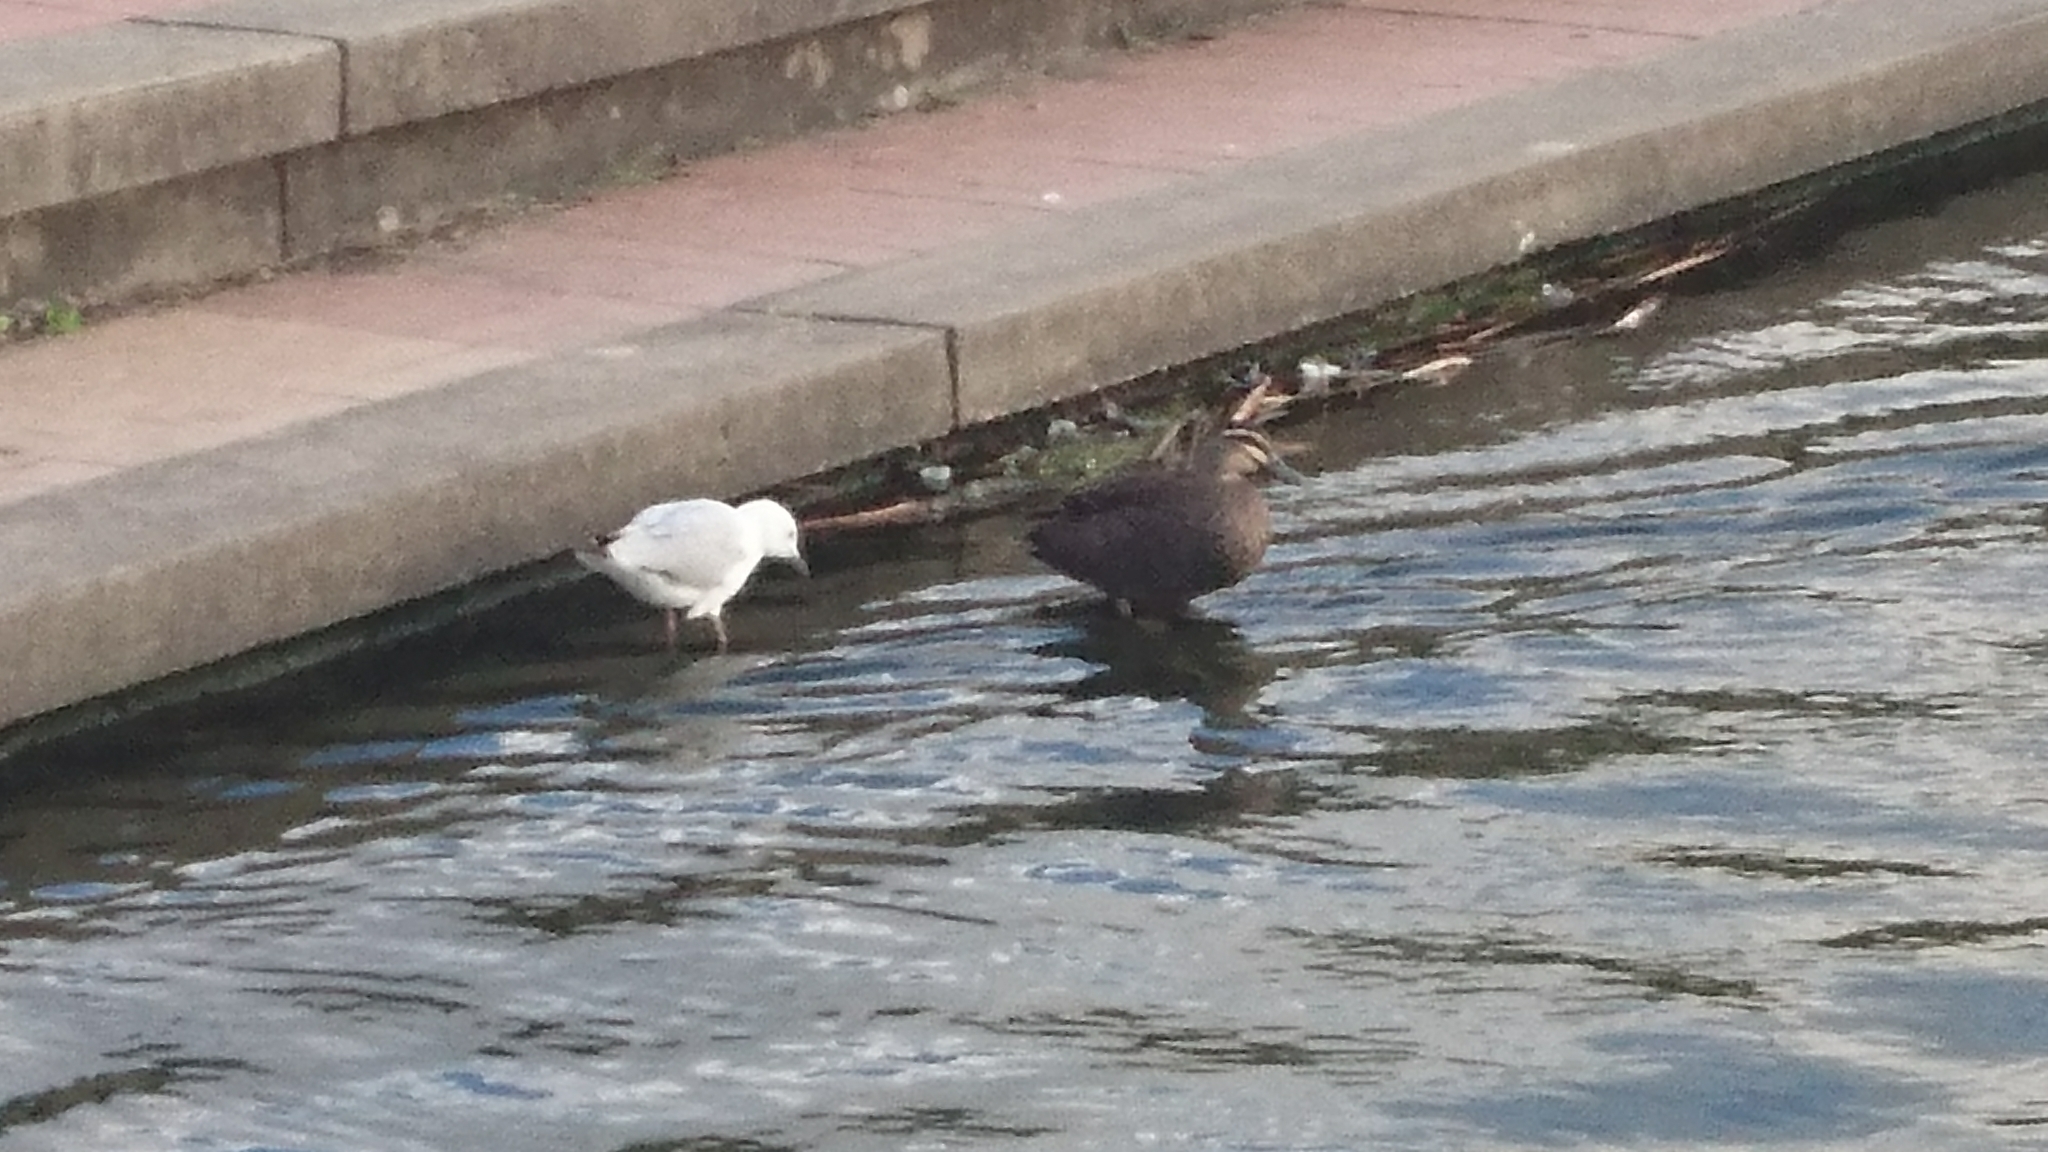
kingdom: Animalia
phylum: Chordata
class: Aves
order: Anseriformes
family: Anatidae
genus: Anas
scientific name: Anas superciliosa
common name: Pacific black duck
